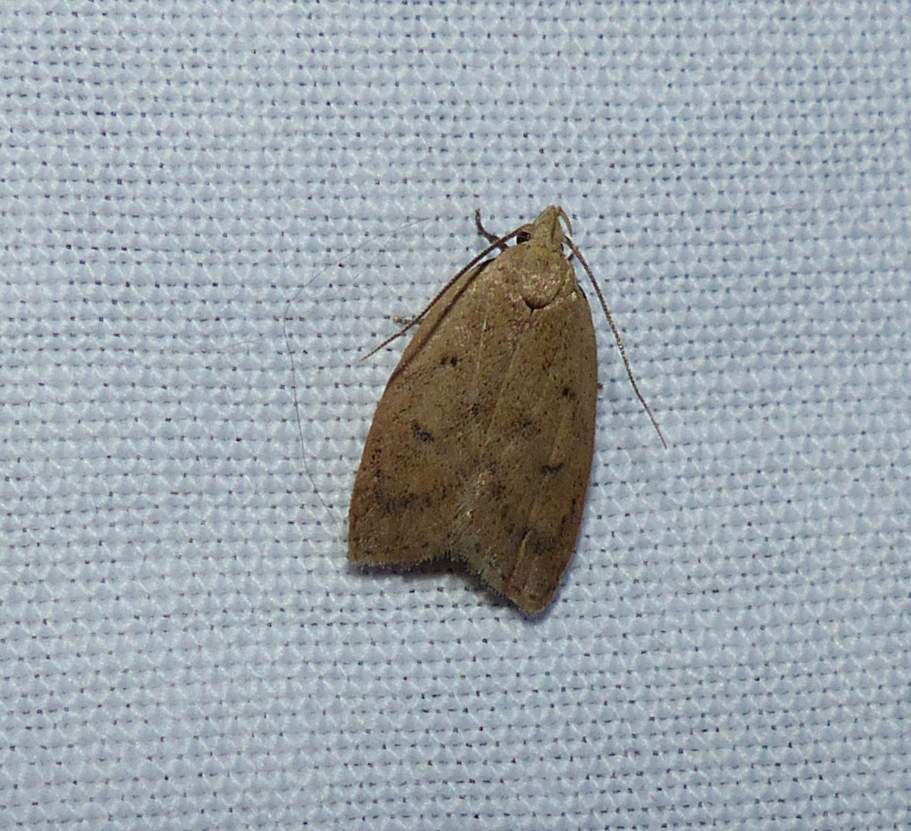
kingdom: Animalia
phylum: Arthropoda
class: Insecta
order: Lepidoptera
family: Peleopodidae
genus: Machimia
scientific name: Machimia tentoriferella
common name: Gold-striped leaftier moth
